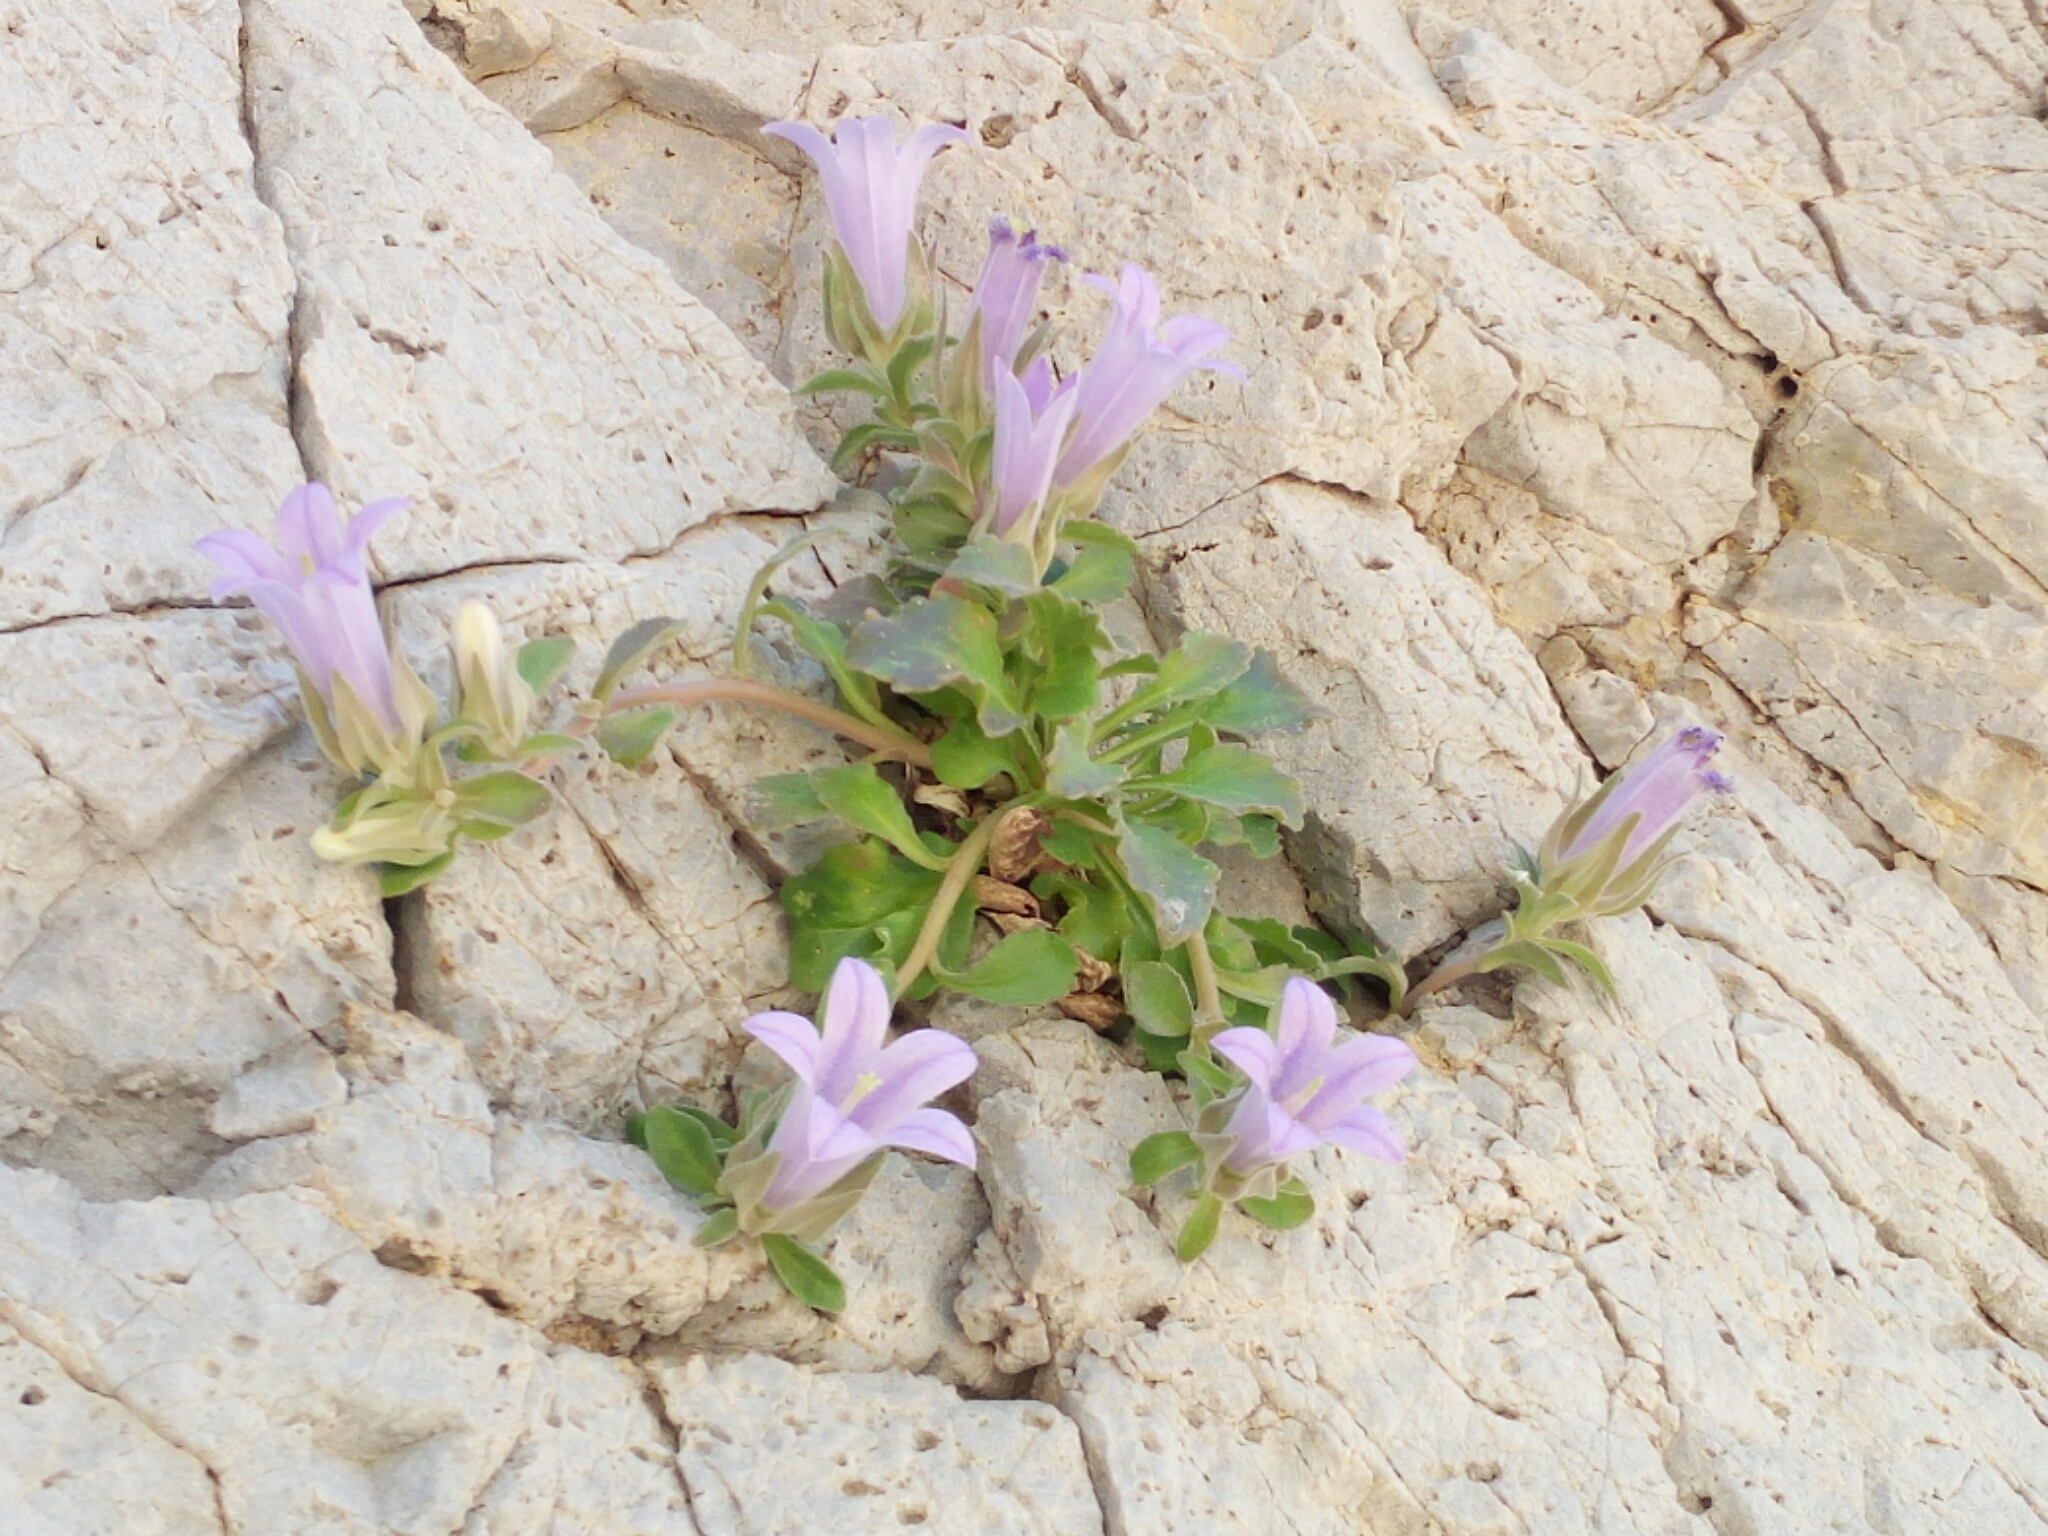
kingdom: Plantae
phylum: Tracheophyta
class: Magnoliopsida
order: Asterales
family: Campanulaceae
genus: Campanula
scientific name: Campanula saxatilis
